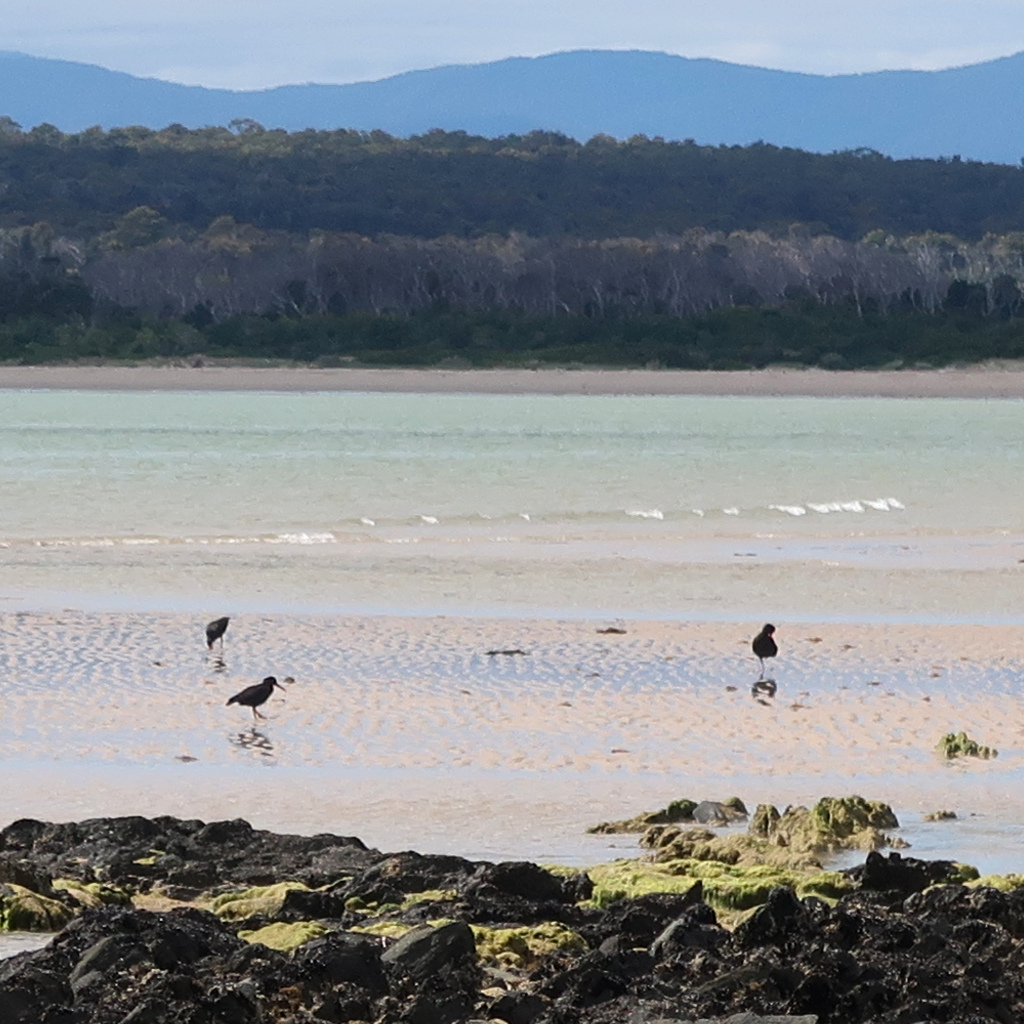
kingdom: Animalia
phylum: Chordata
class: Aves
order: Charadriiformes
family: Haematopodidae
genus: Haematopus
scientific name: Haematopus fuliginosus
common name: Sooty oystercatcher
